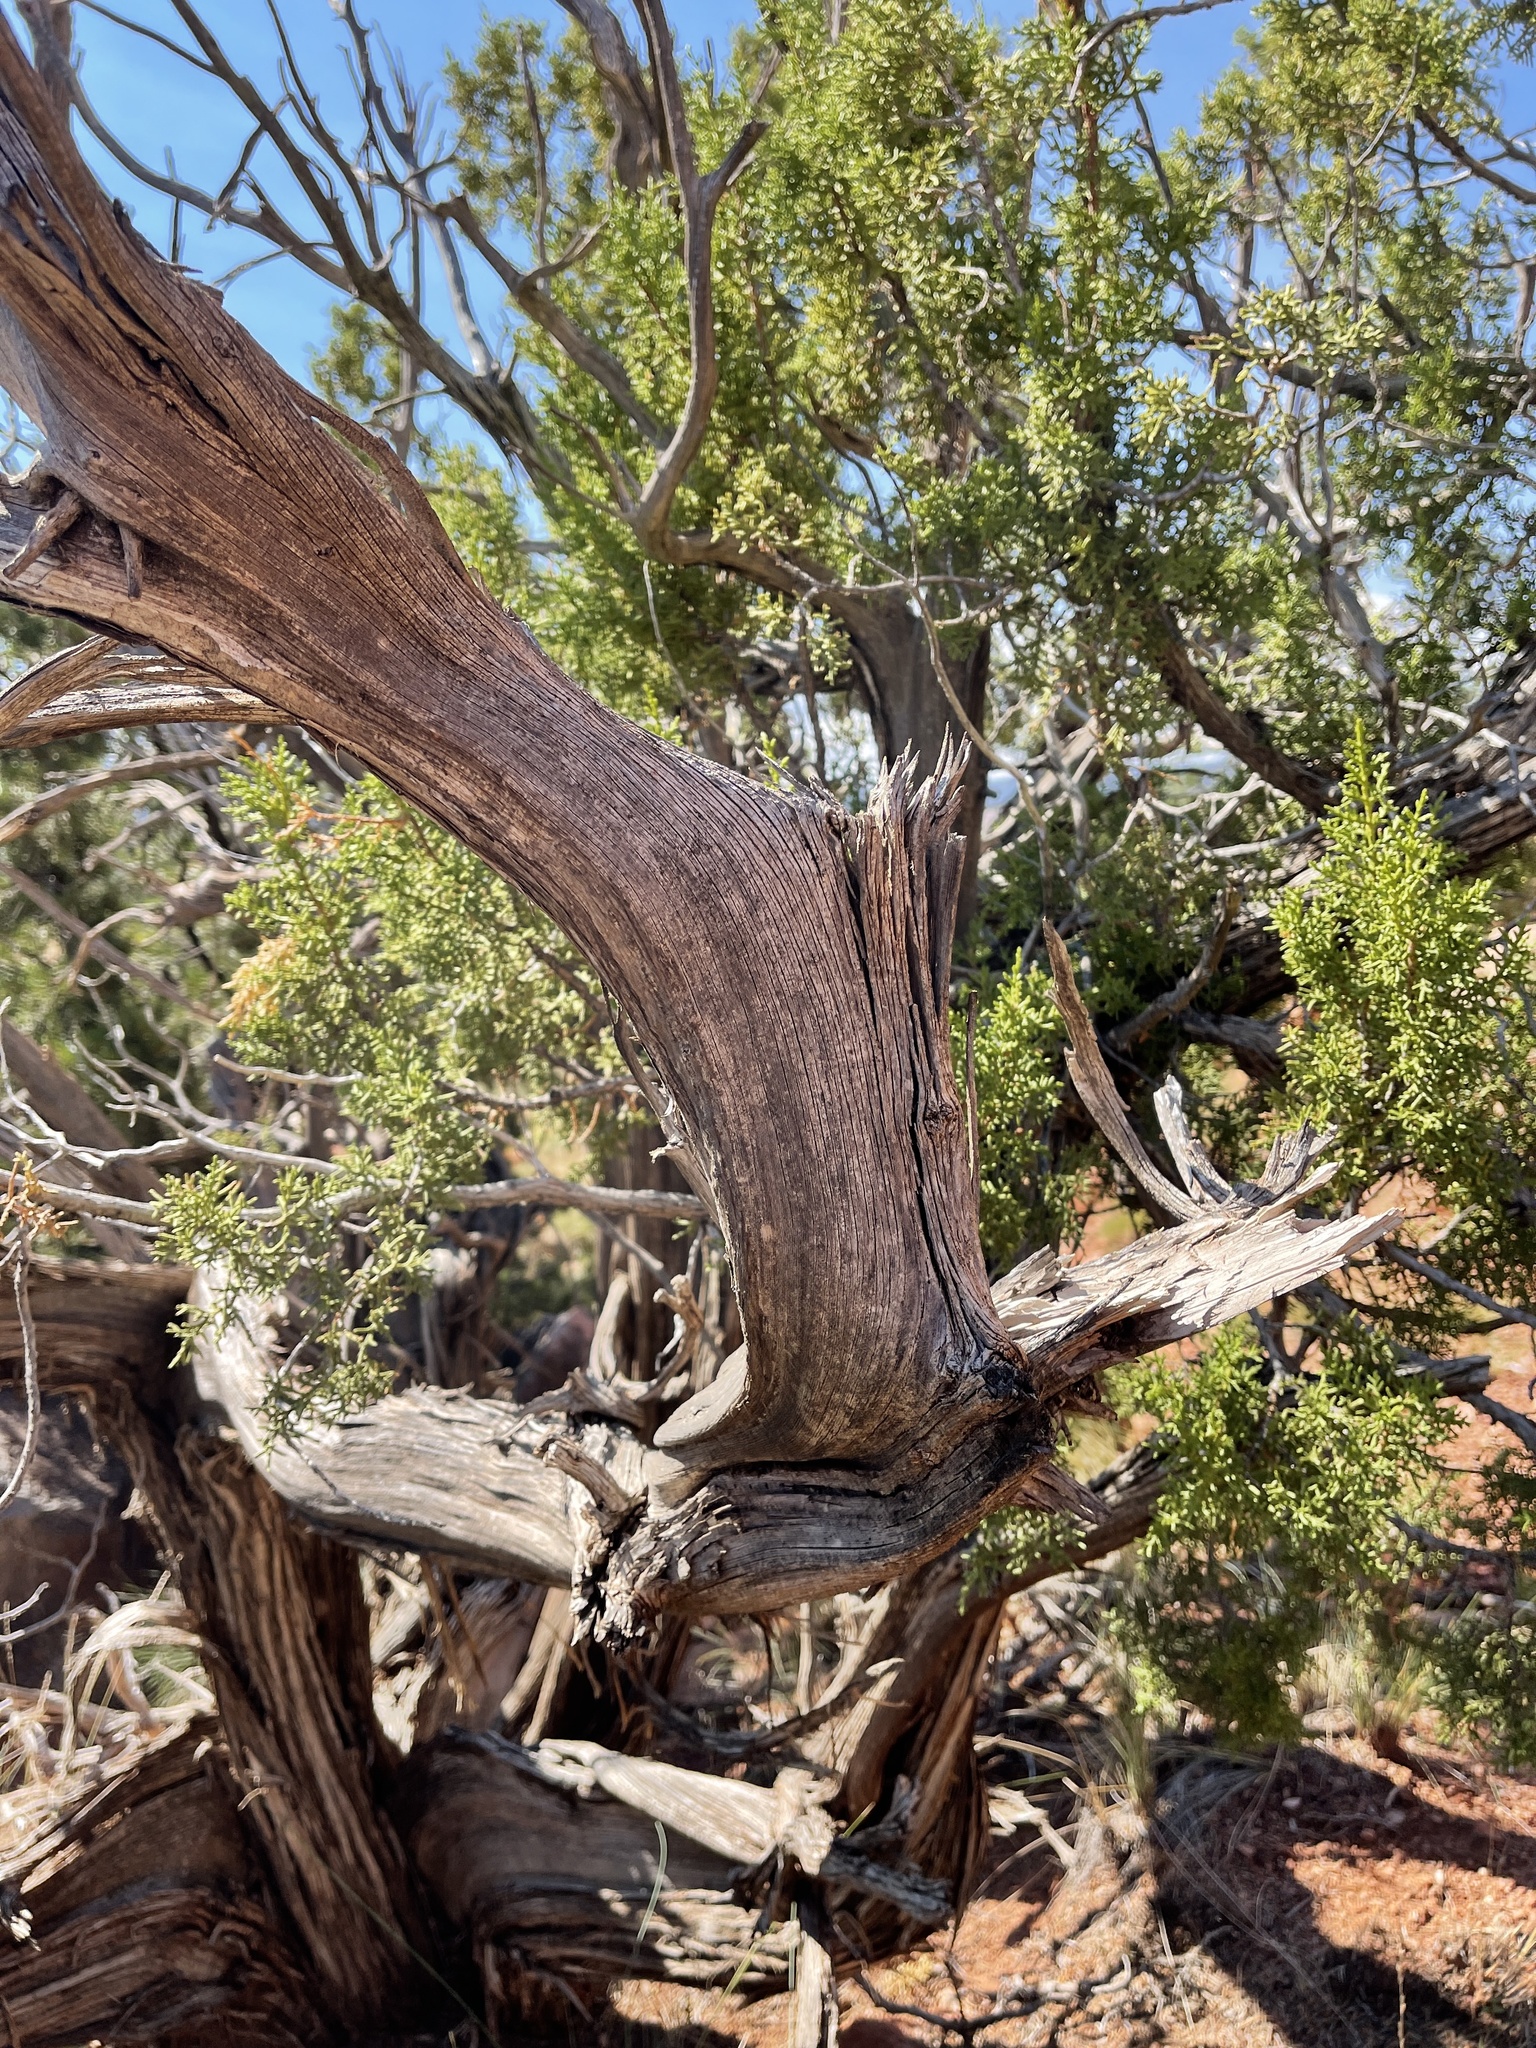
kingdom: Plantae
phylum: Tracheophyta
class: Pinopsida
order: Pinales
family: Cupressaceae
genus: Juniperus
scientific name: Juniperus osteosperma
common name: Utah juniper
